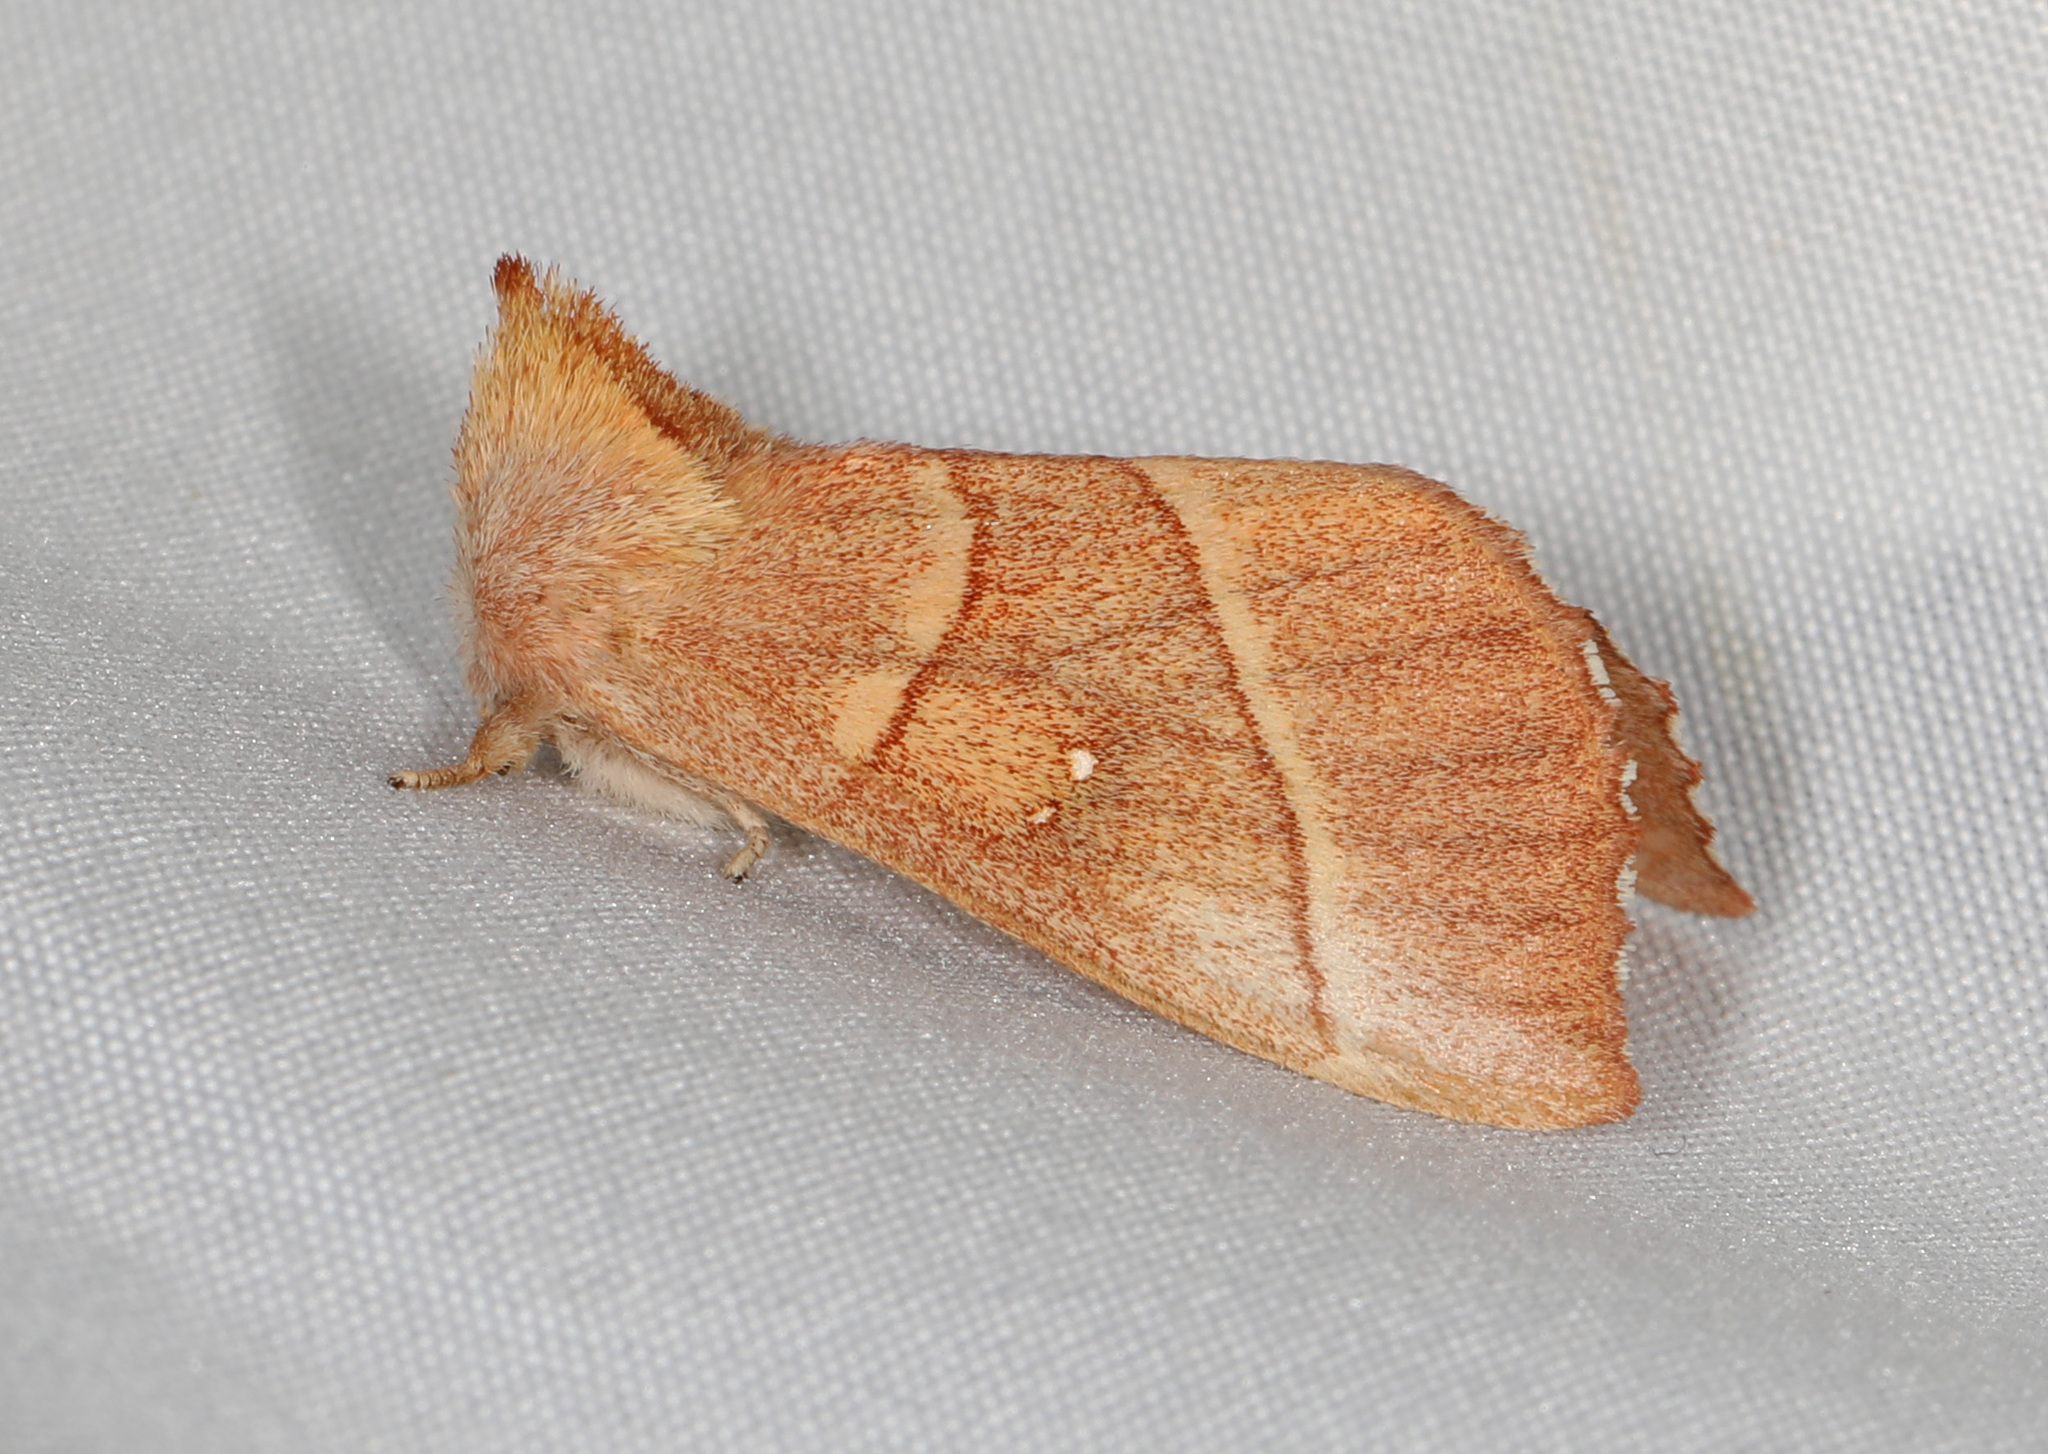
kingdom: Animalia
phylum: Arthropoda
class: Insecta
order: Lepidoptera
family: Notodontidae
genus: Nadata
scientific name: Nadata gibbosa
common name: White-dotted prominent
